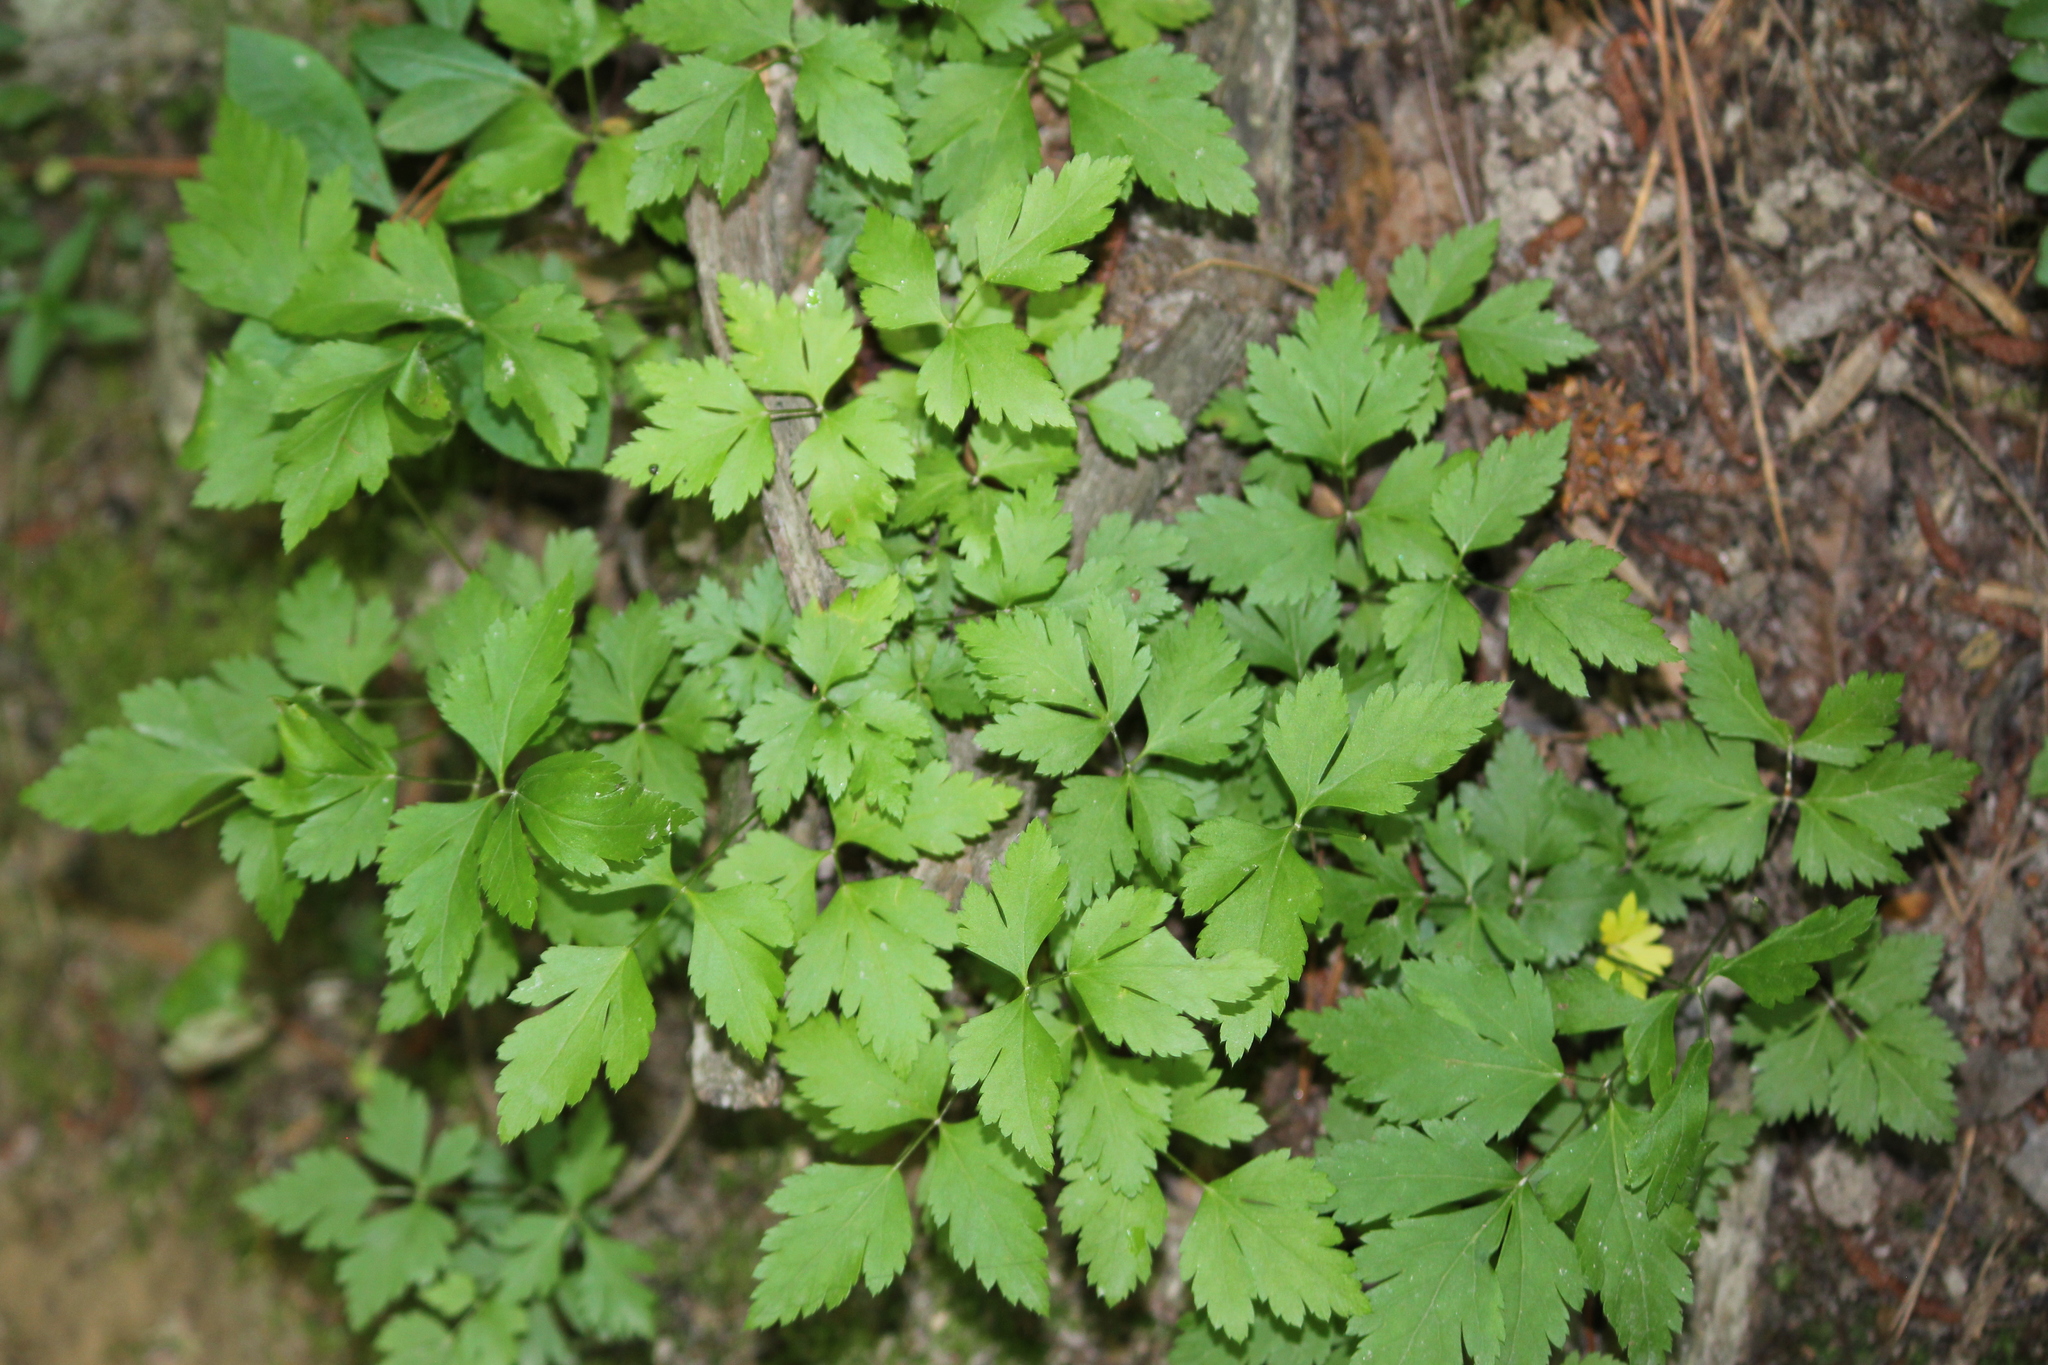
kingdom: Plantae
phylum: Tracheophyta
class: Magnoliopsida
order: Ranunculales
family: Ranunculaceae
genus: Xanthorhiza
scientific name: Xanthorhiza simplicissima
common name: Yellowroot
